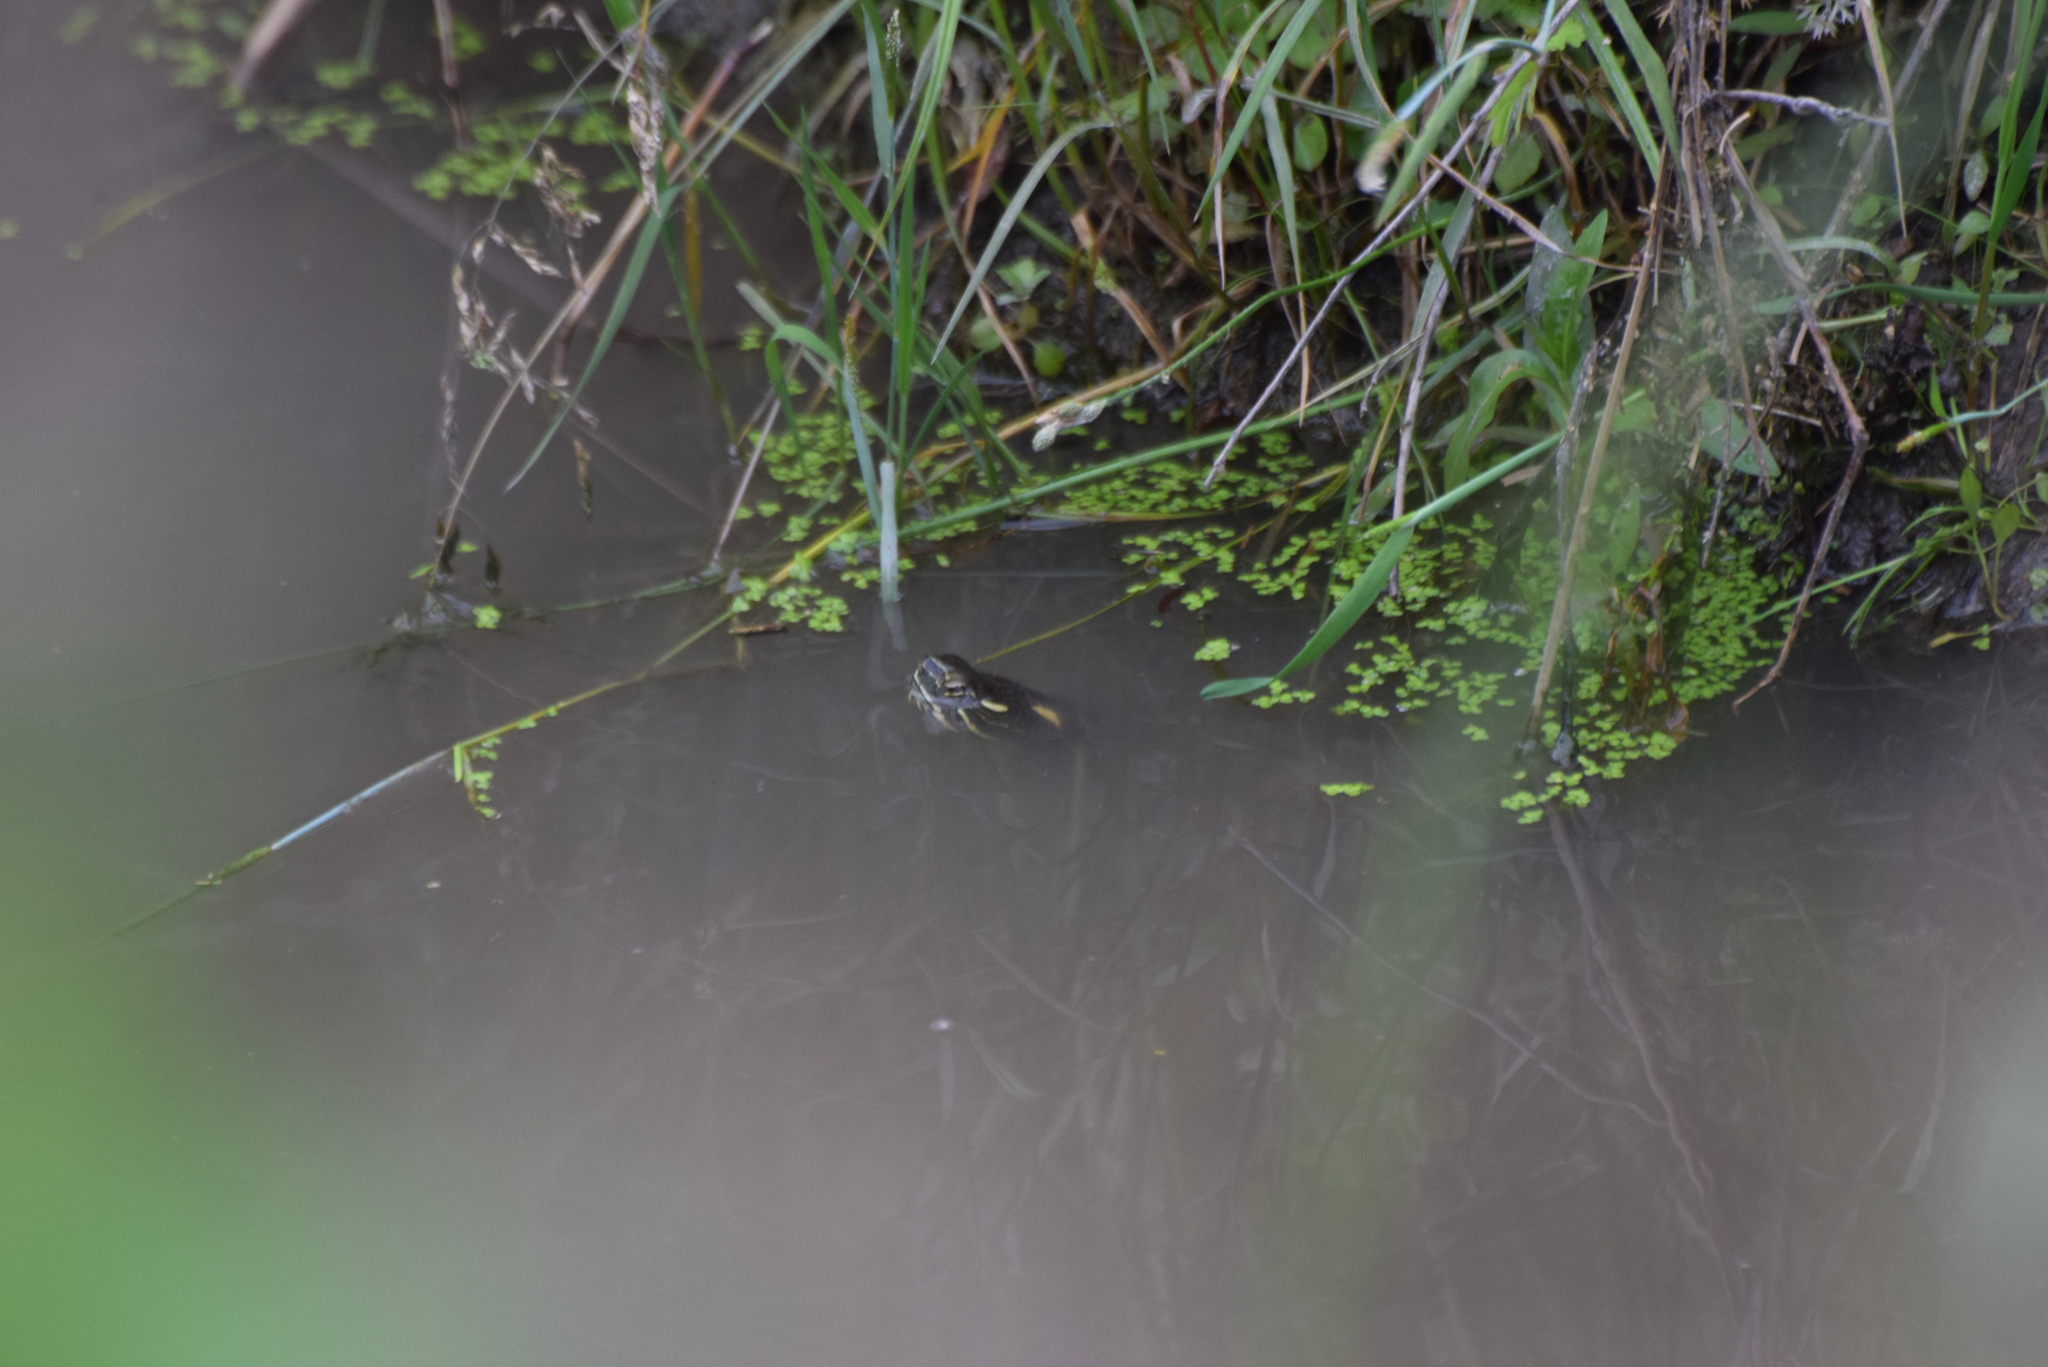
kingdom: Animalia
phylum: Chordata
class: Testudines
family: Emydidae
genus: Chrysemys
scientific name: Chrysemys picta
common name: Painted turtle
